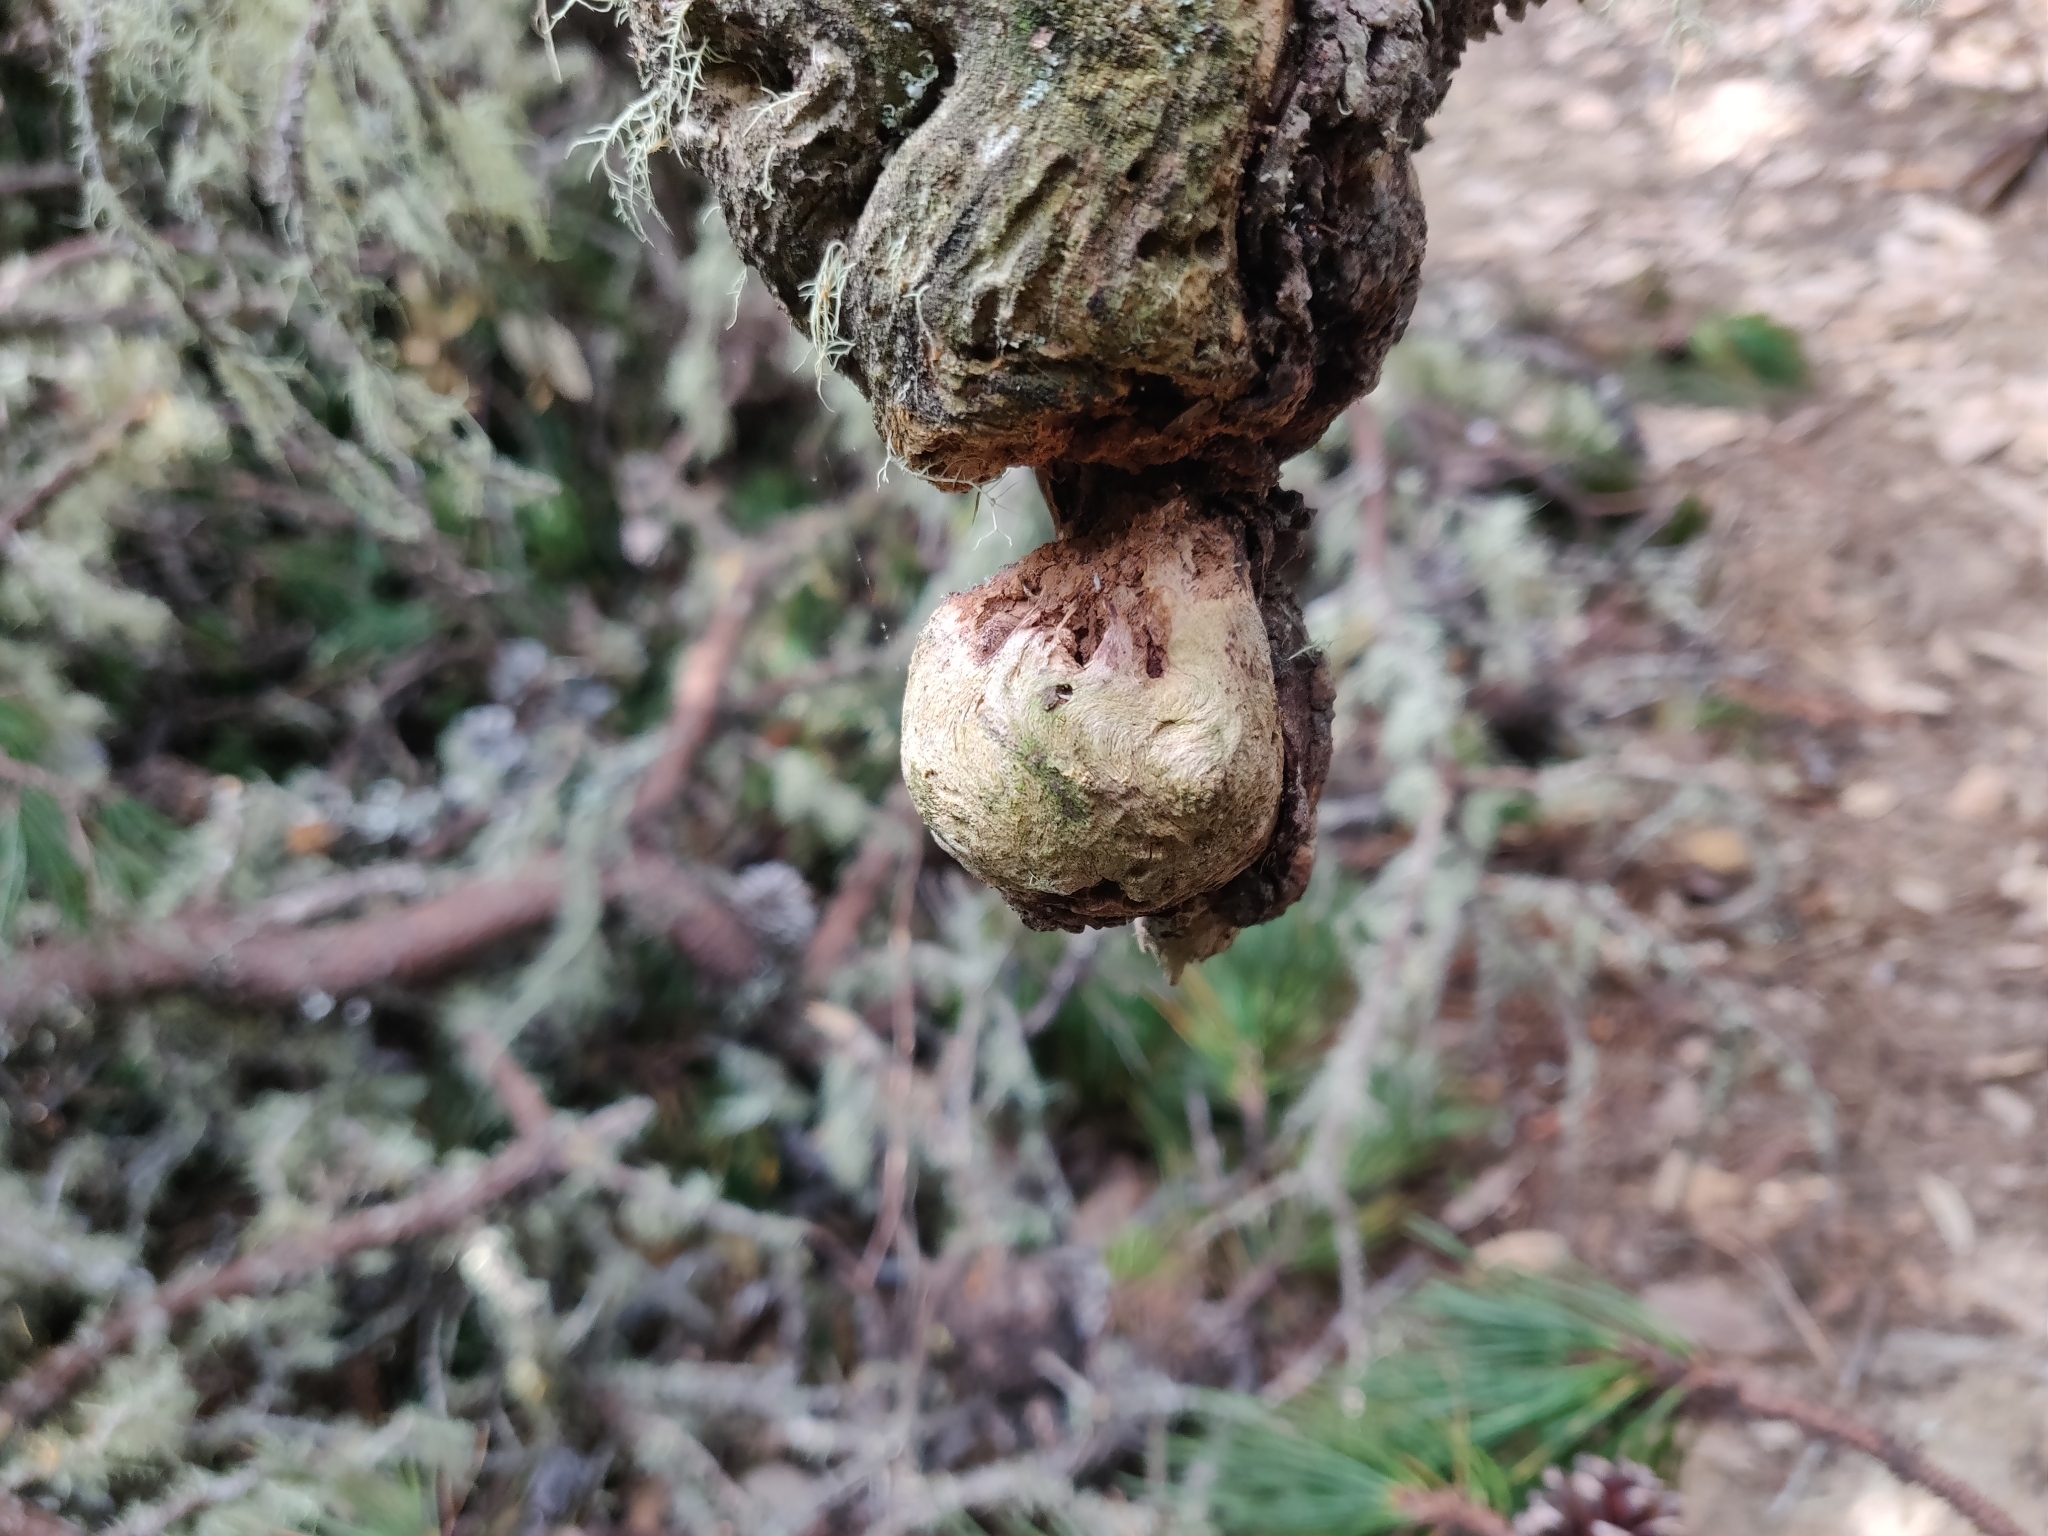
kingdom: Plantae
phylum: Tracheophyta
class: Pinopsida
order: Pinales
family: Pinaceae
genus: Pinus
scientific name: Pinus muricata
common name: Bishop pine
